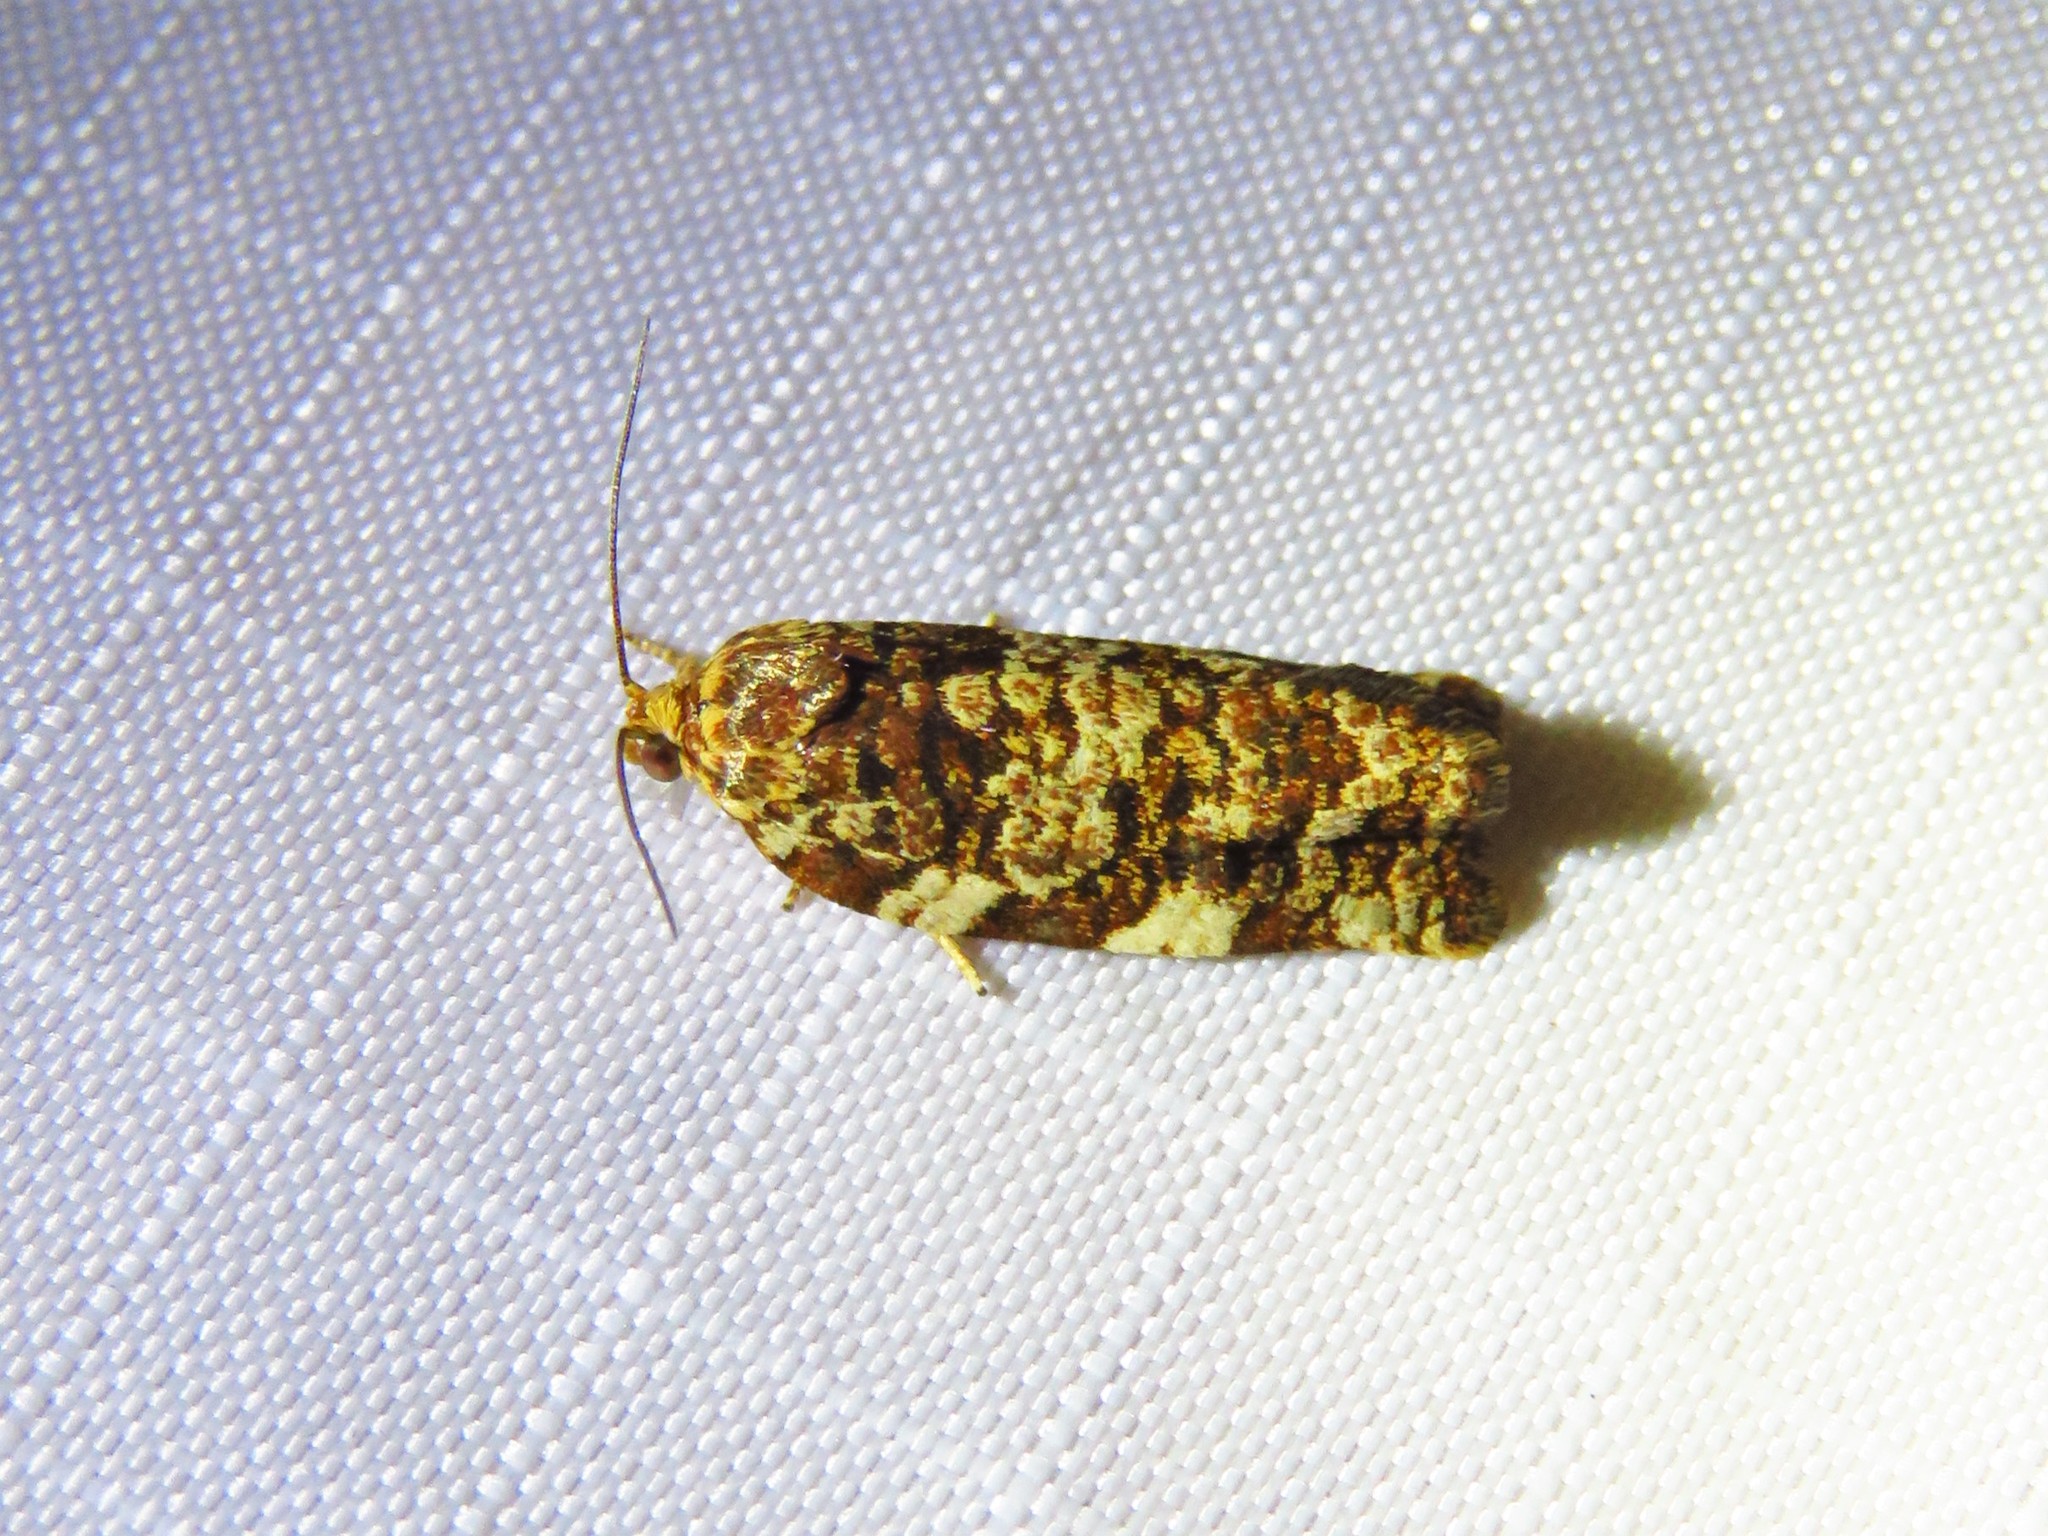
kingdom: Animalia
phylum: Arthropoda
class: Insecta
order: Lepidoptera
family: Tortricidae
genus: Archips
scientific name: Archips argyrospila
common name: Fruit-tree leafroller moth
